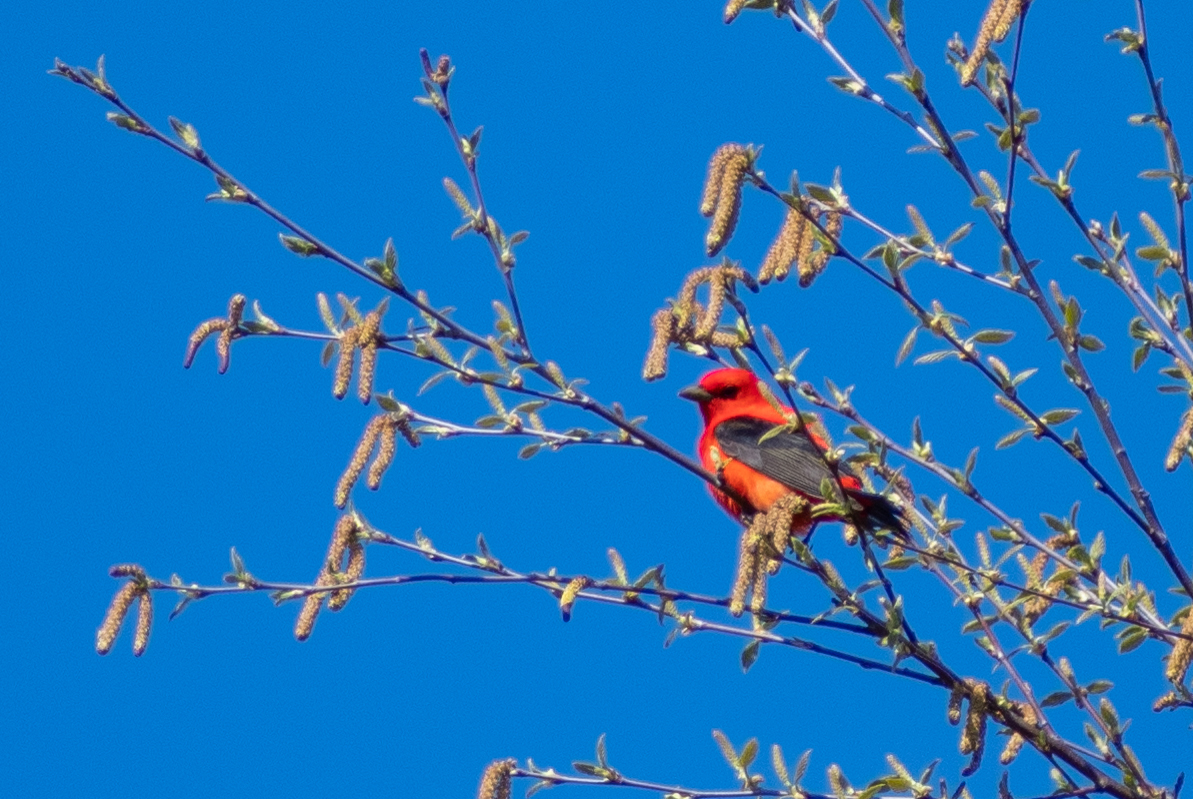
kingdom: Animalia
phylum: Chordata
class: Aves
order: Passeriformes
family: Cardinalidae
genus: Piranga
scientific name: Piranga olivacea
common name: Scarlet tanager
